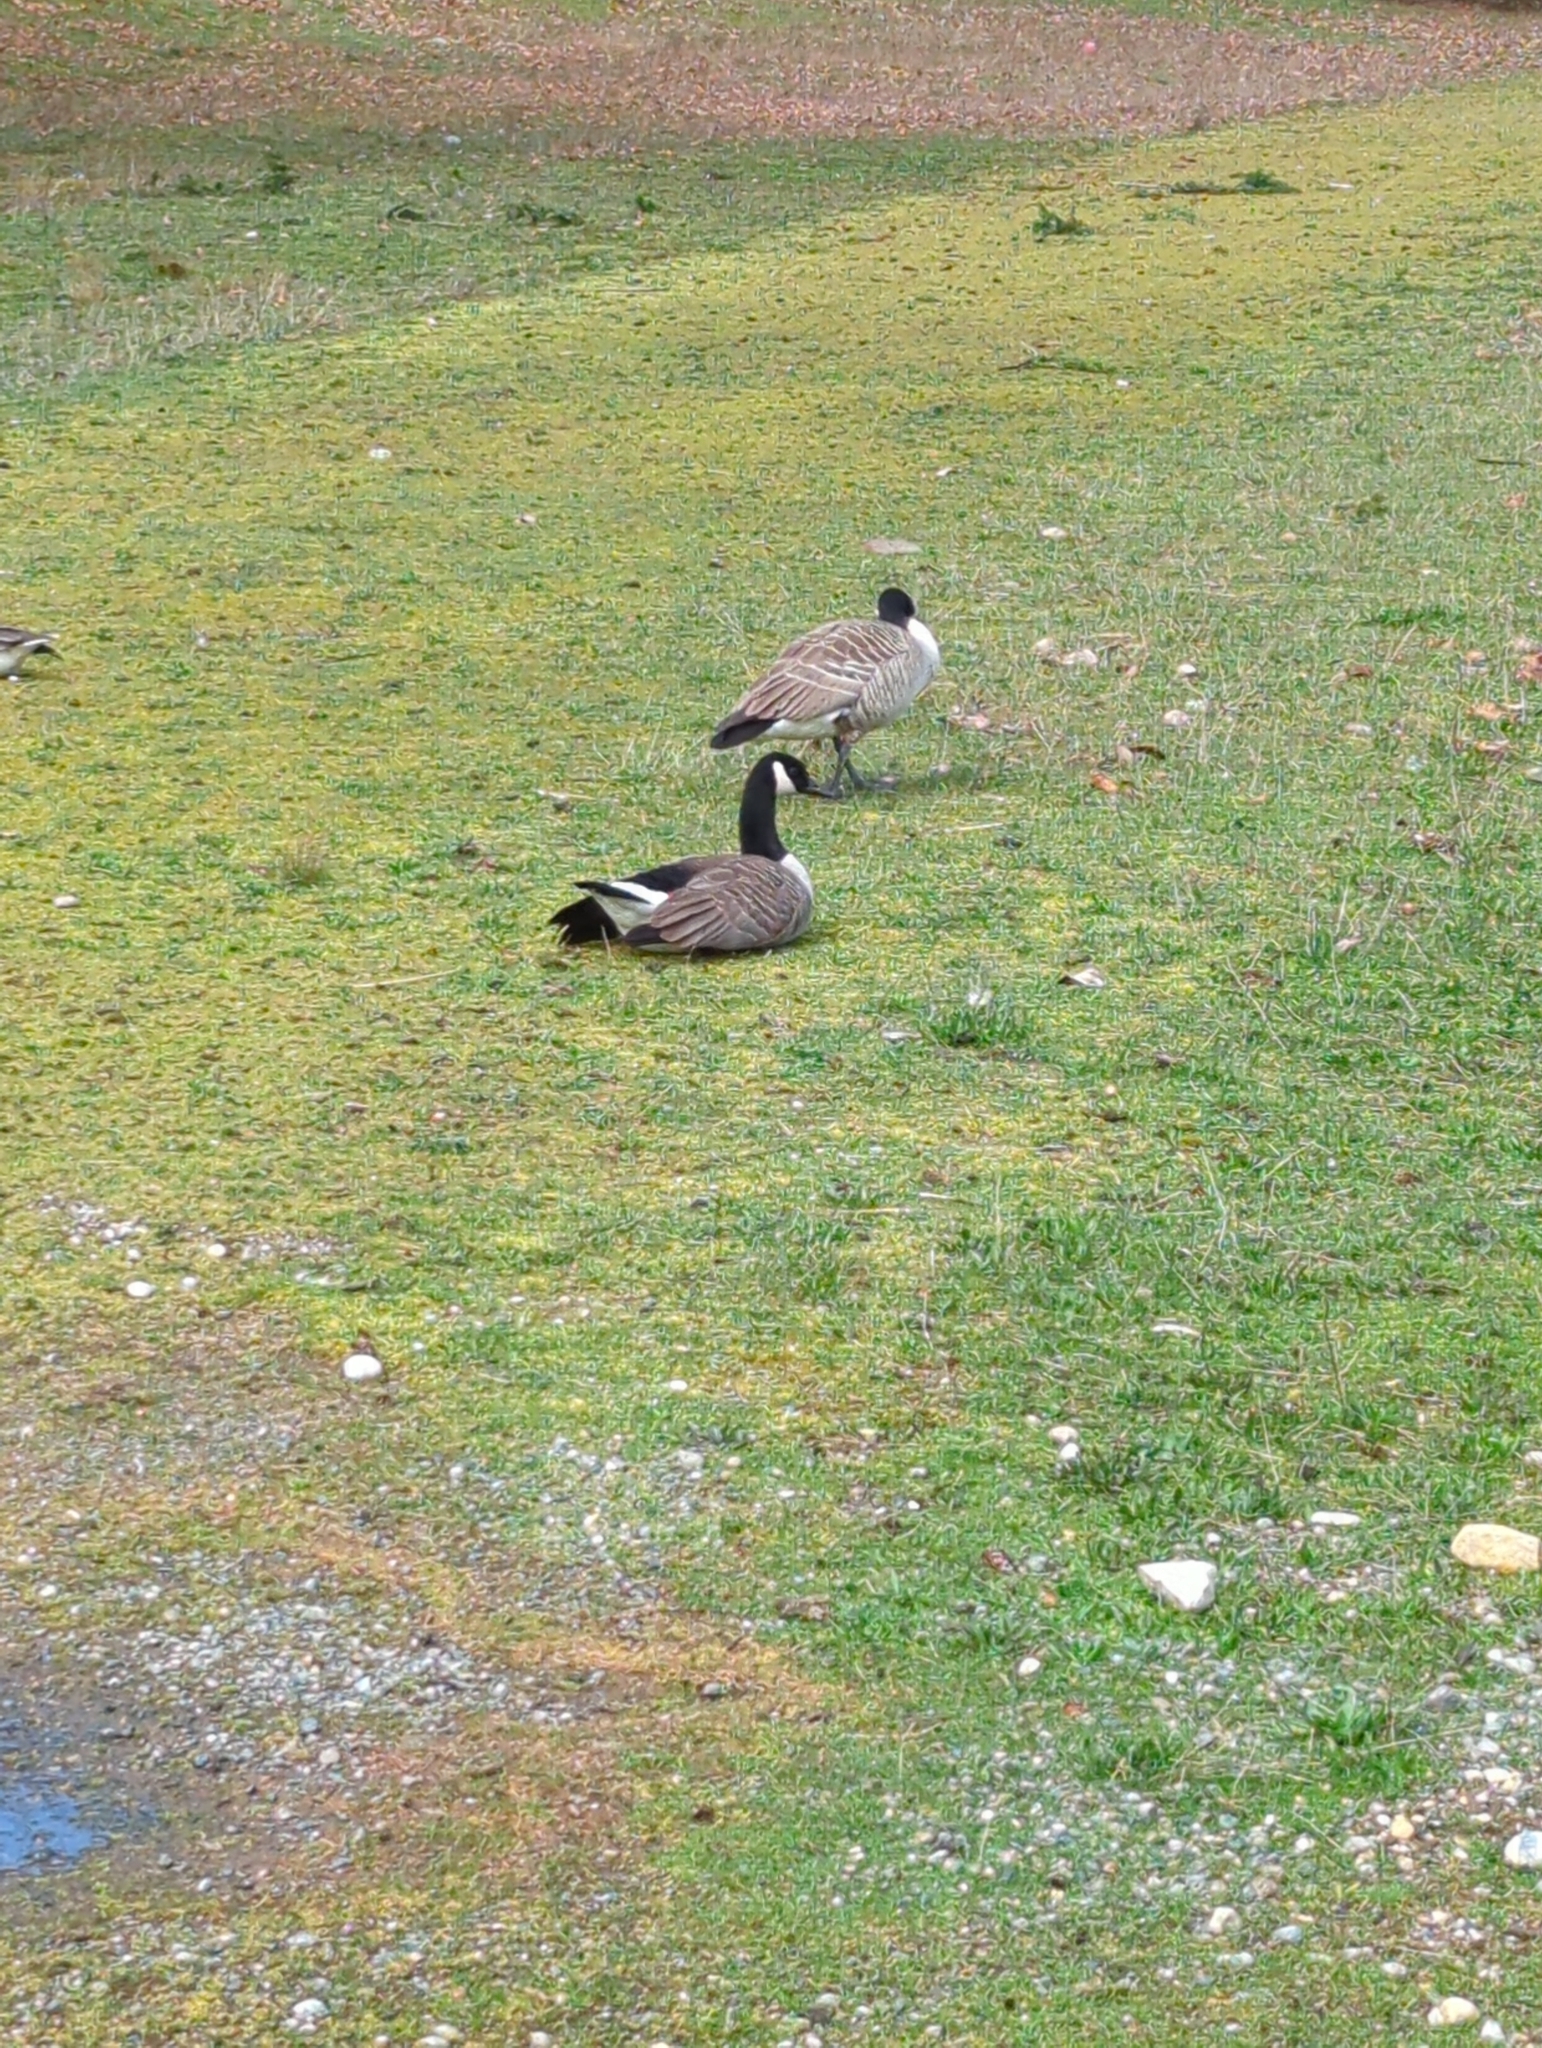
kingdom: Animalia
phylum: Chordata
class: Aves
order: Anseriformes
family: Anatidae
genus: Branta
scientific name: Branta canadensis
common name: Canada goose
